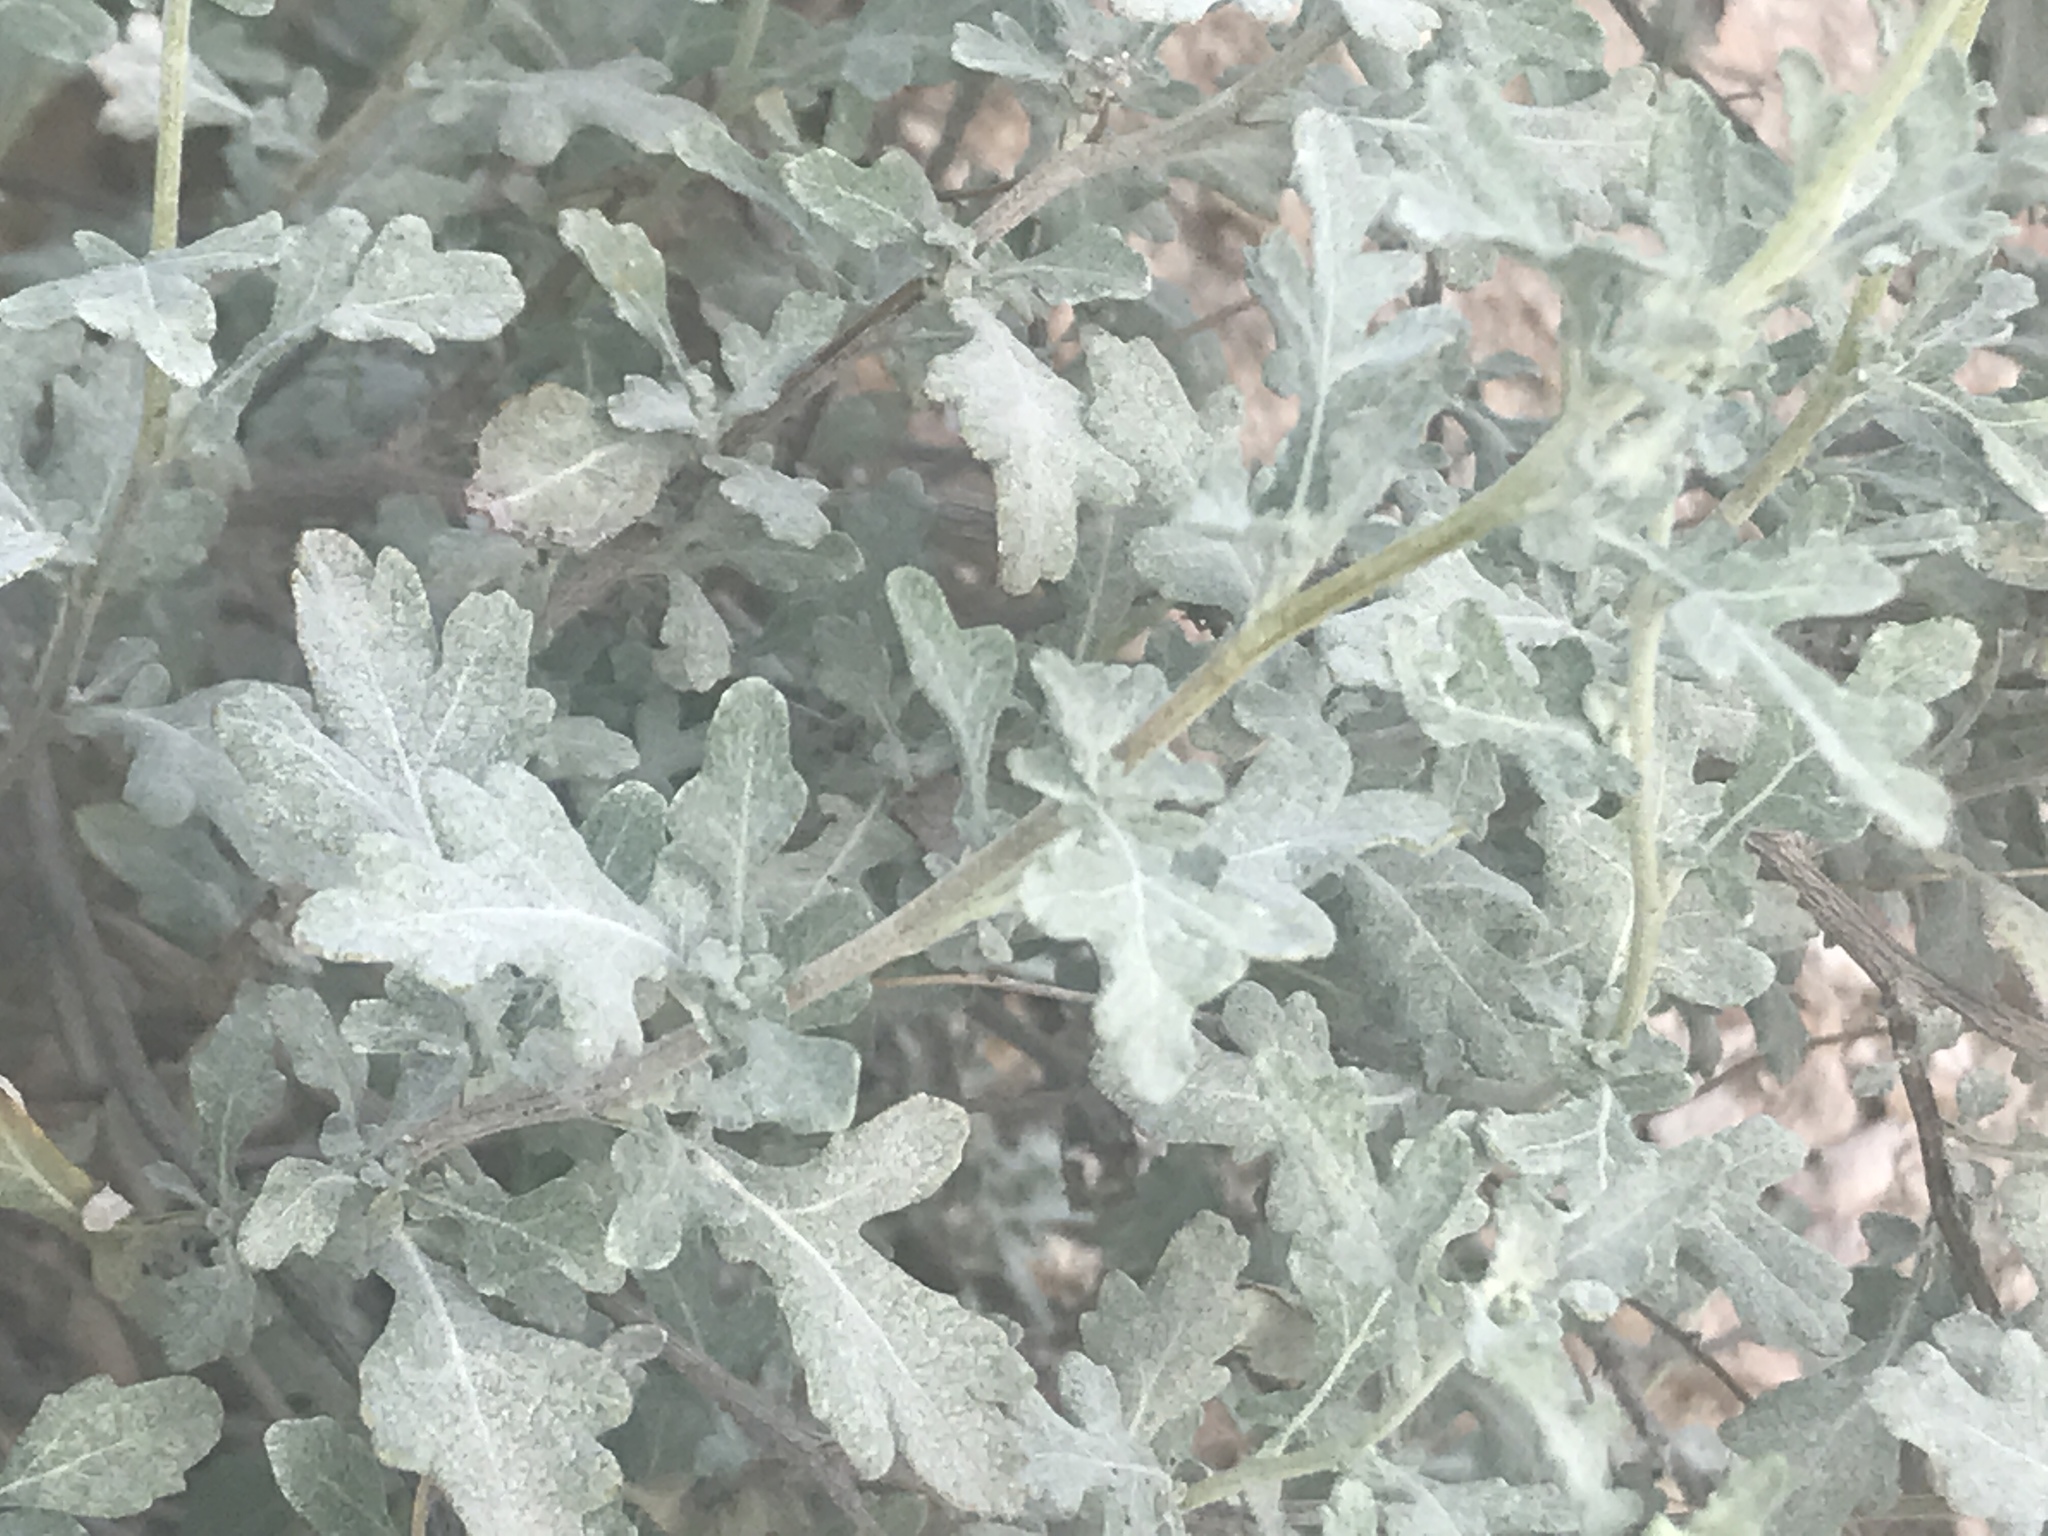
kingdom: Plantae
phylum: Tracheophyta
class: Magnoliopsida
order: Asterales
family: Asteraceae
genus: Parthenium
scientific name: Parthenium incanum
